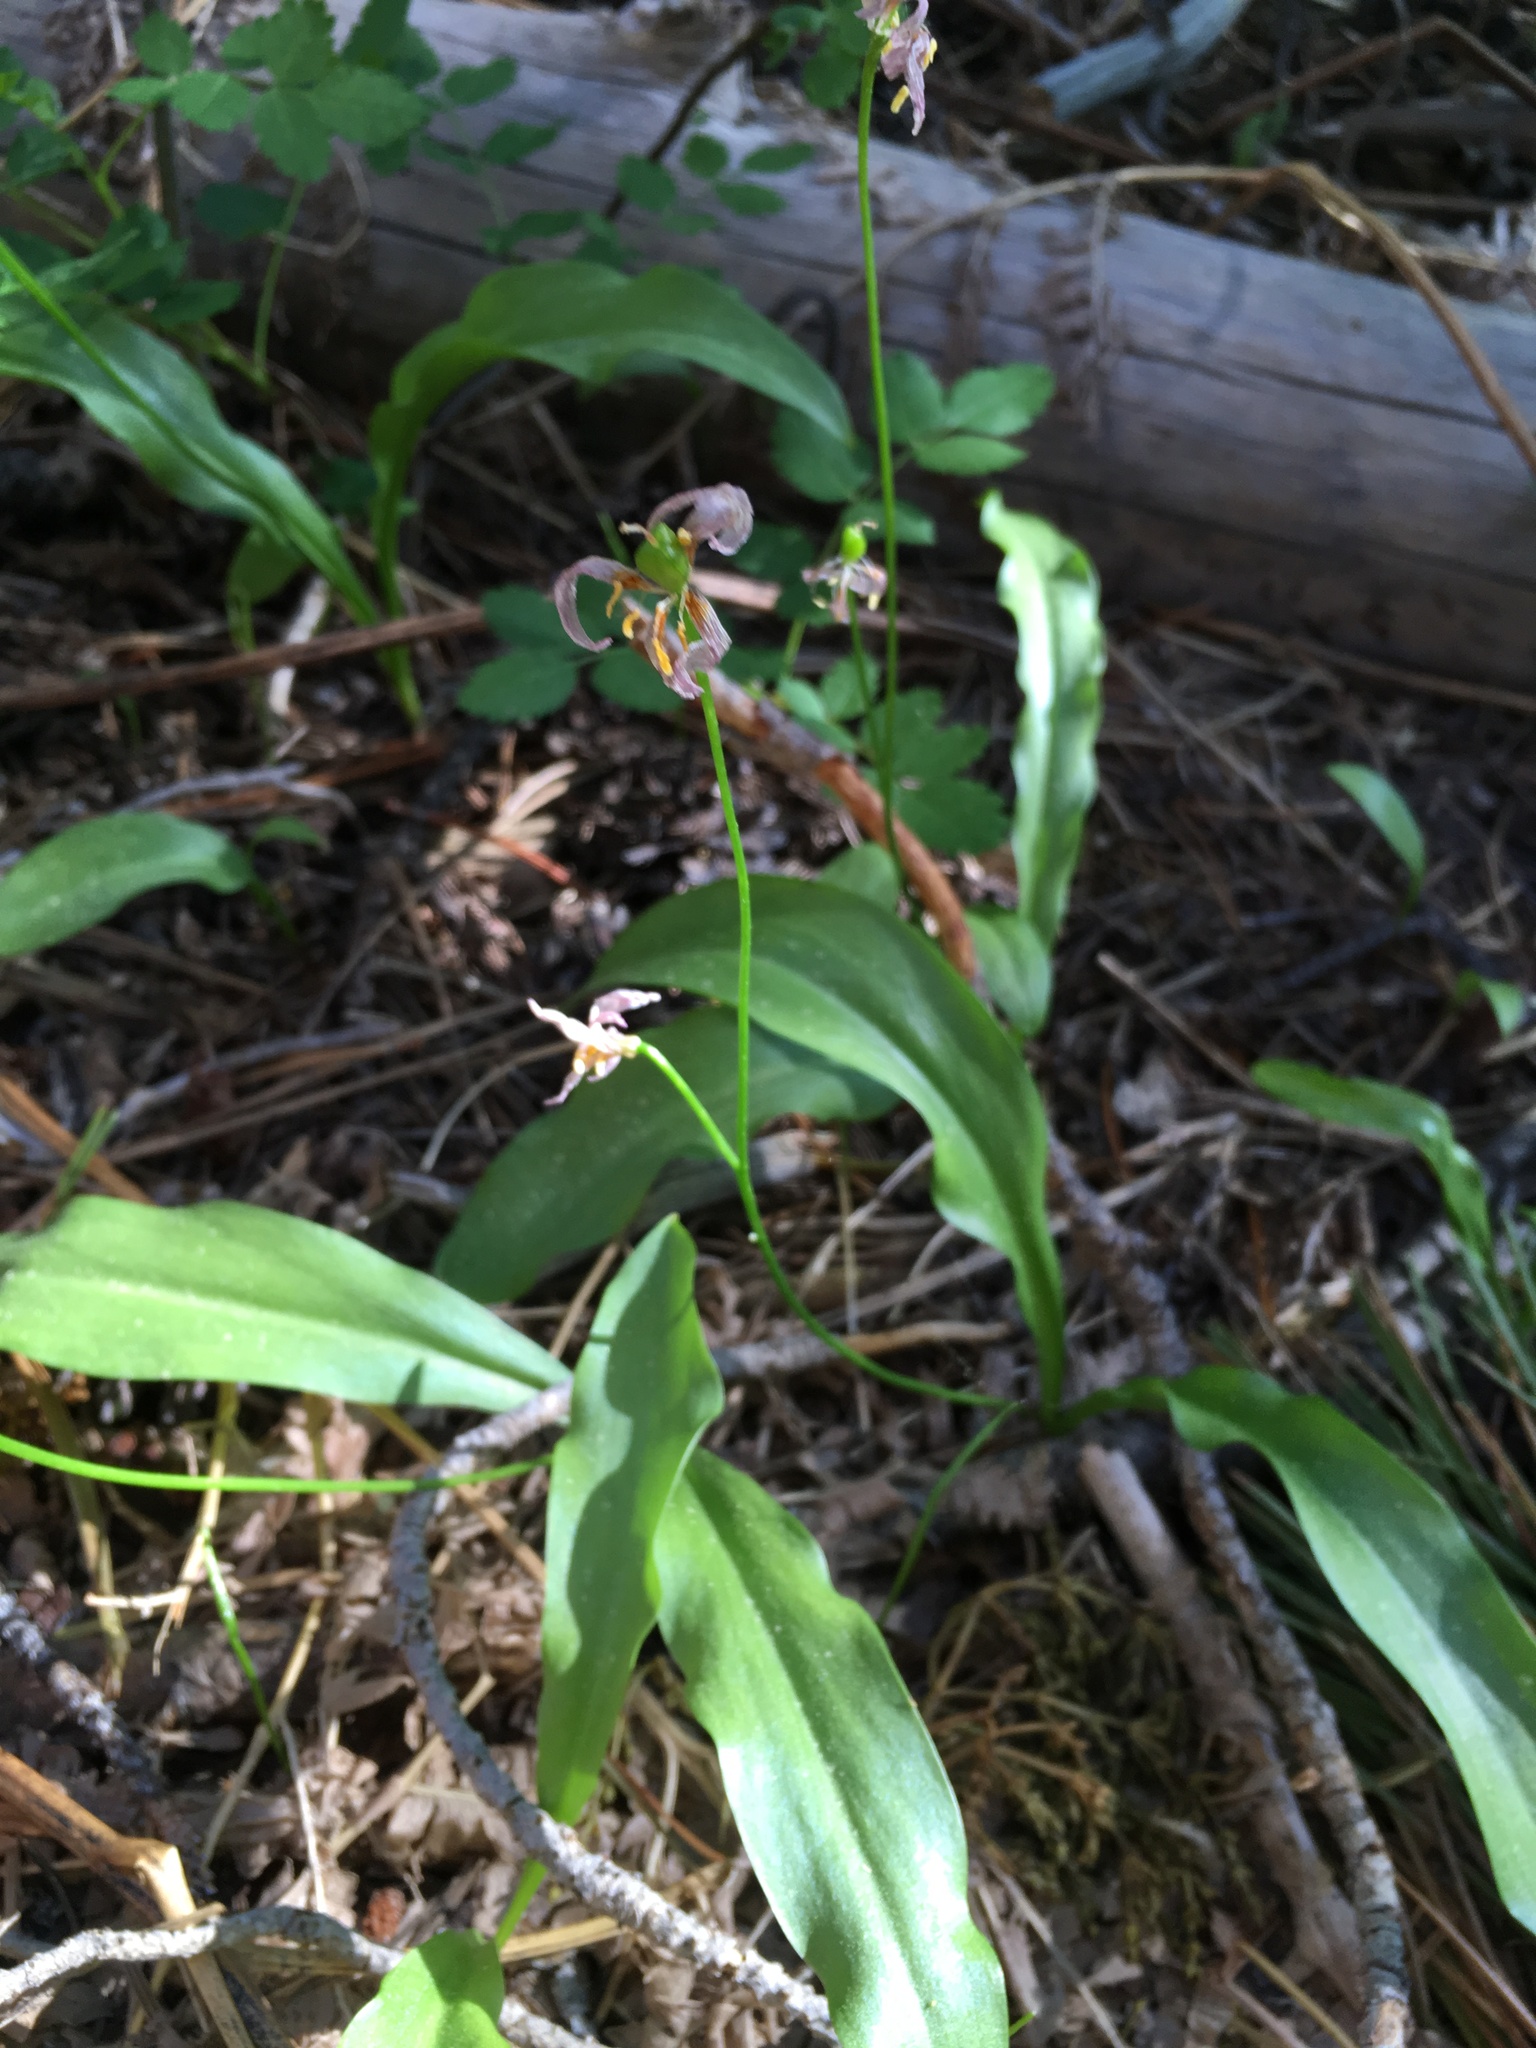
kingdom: Plantae
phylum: Tracheophyta
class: Liliopsida
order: Liliales
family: Liliaceae
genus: Erythronium
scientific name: Erythronium purpurascens
